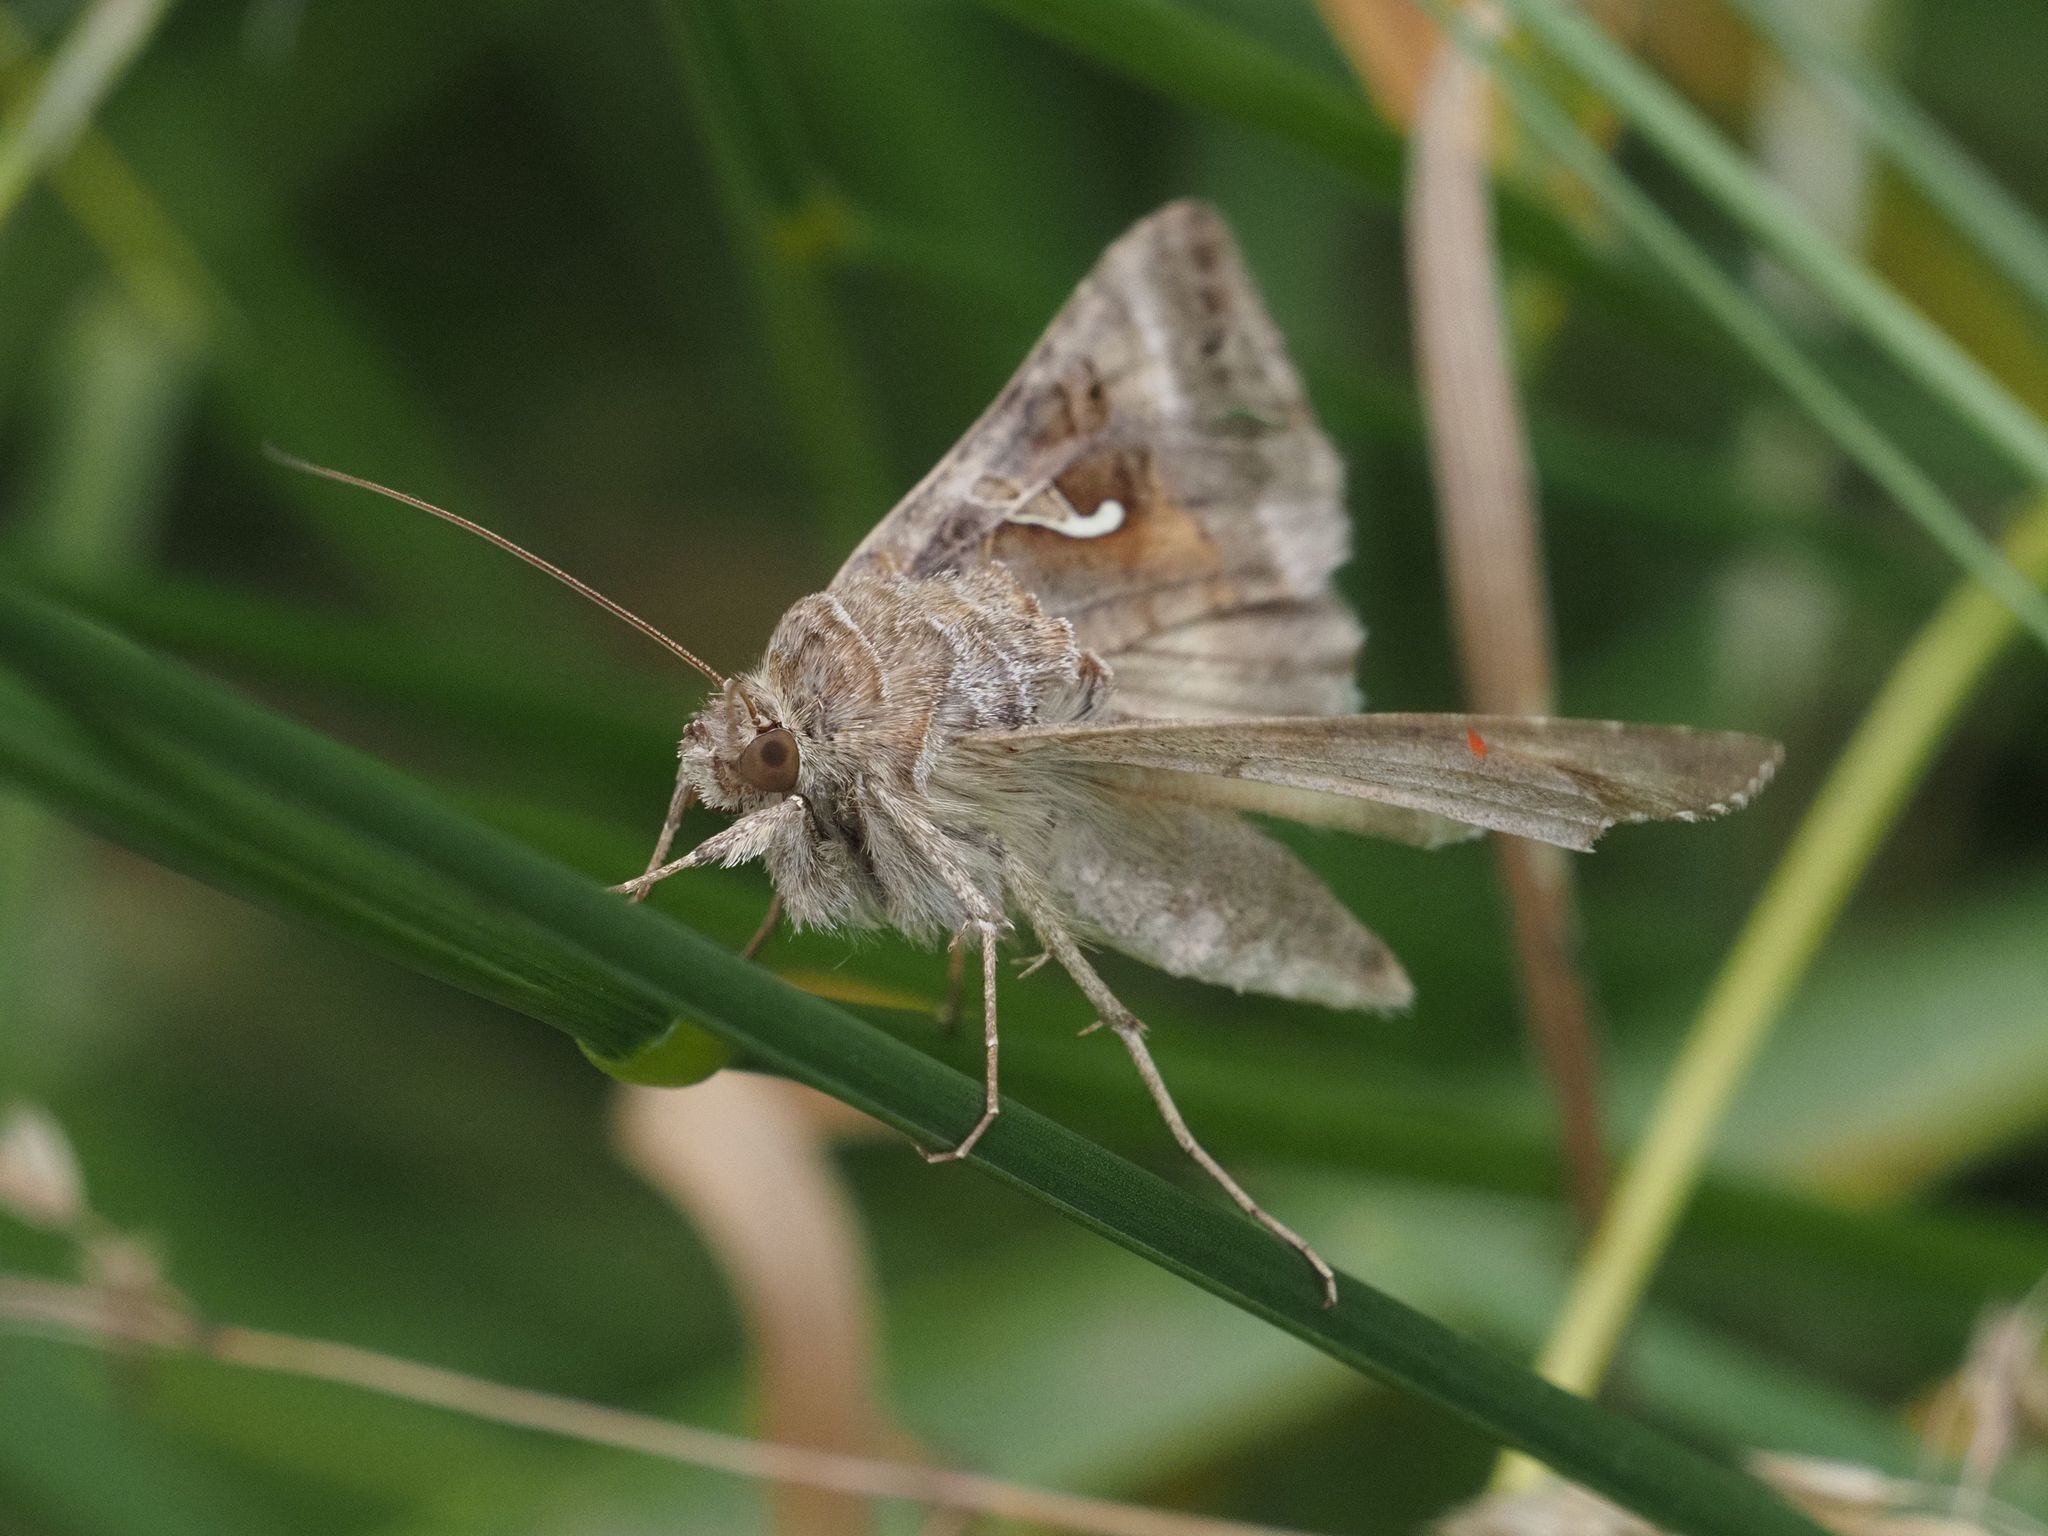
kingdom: Animalia
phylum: Arthropoda
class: Insecta
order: Lepidoptera
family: Noctuidae
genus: Autographa
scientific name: Autographa gamma
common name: Silver y
